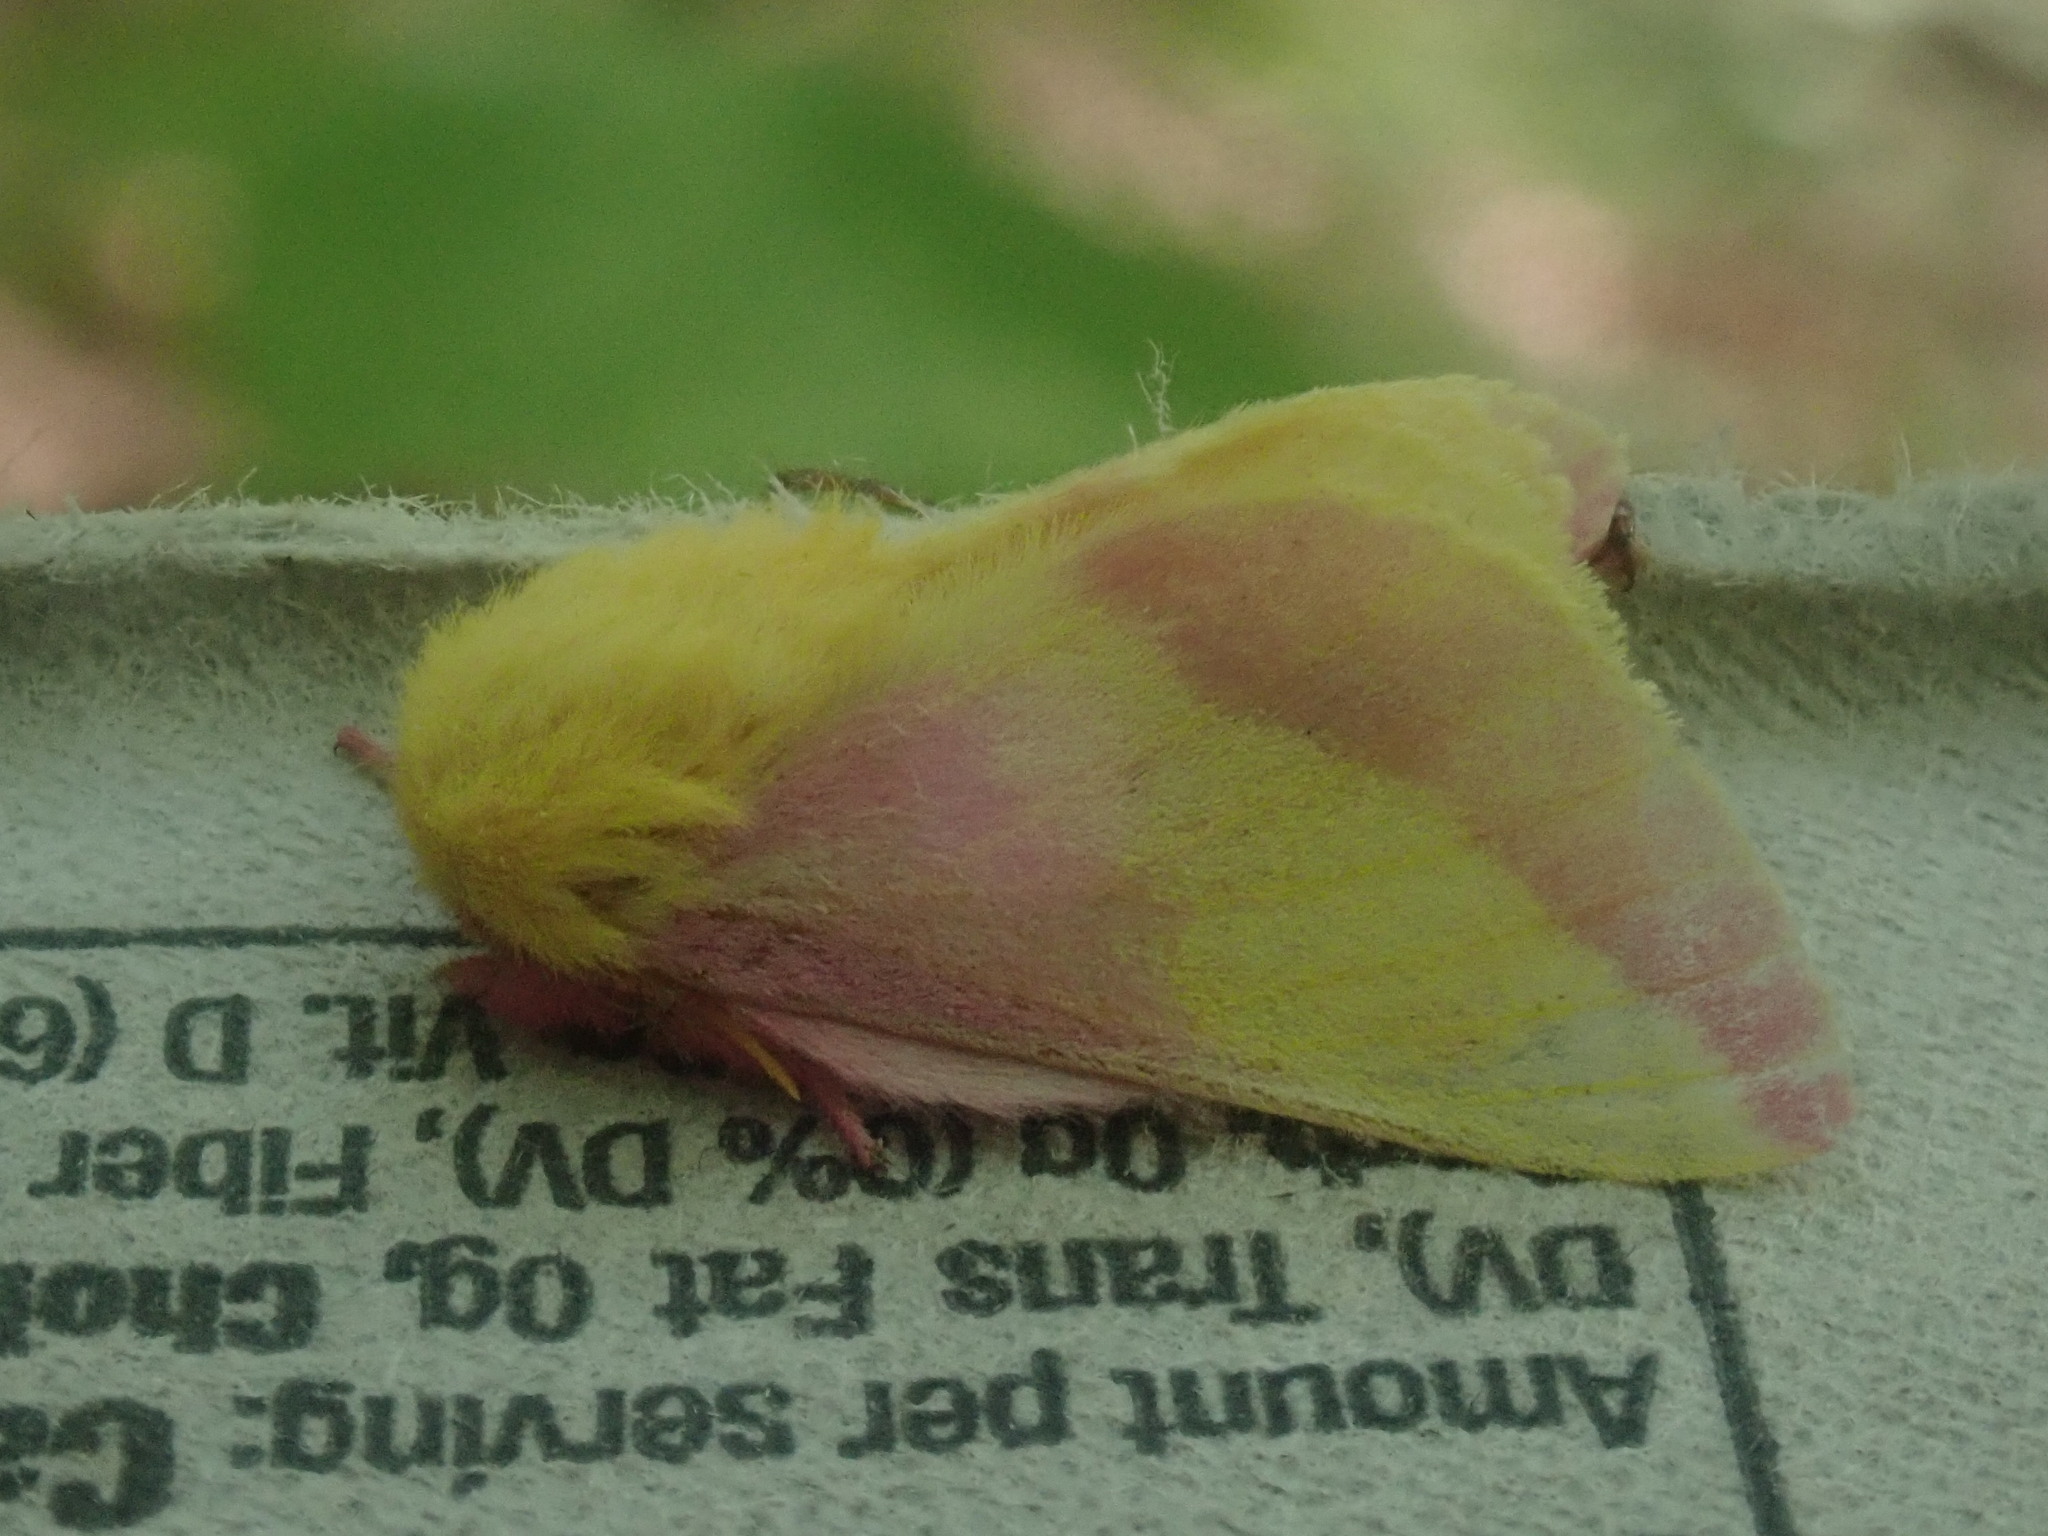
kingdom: Animalia
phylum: Arthropoda
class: Insecta
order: Lepidoptera
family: Saturniidae
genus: Dryocampa
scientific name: Dryocampa rubicunda
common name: Rosy maple moth
